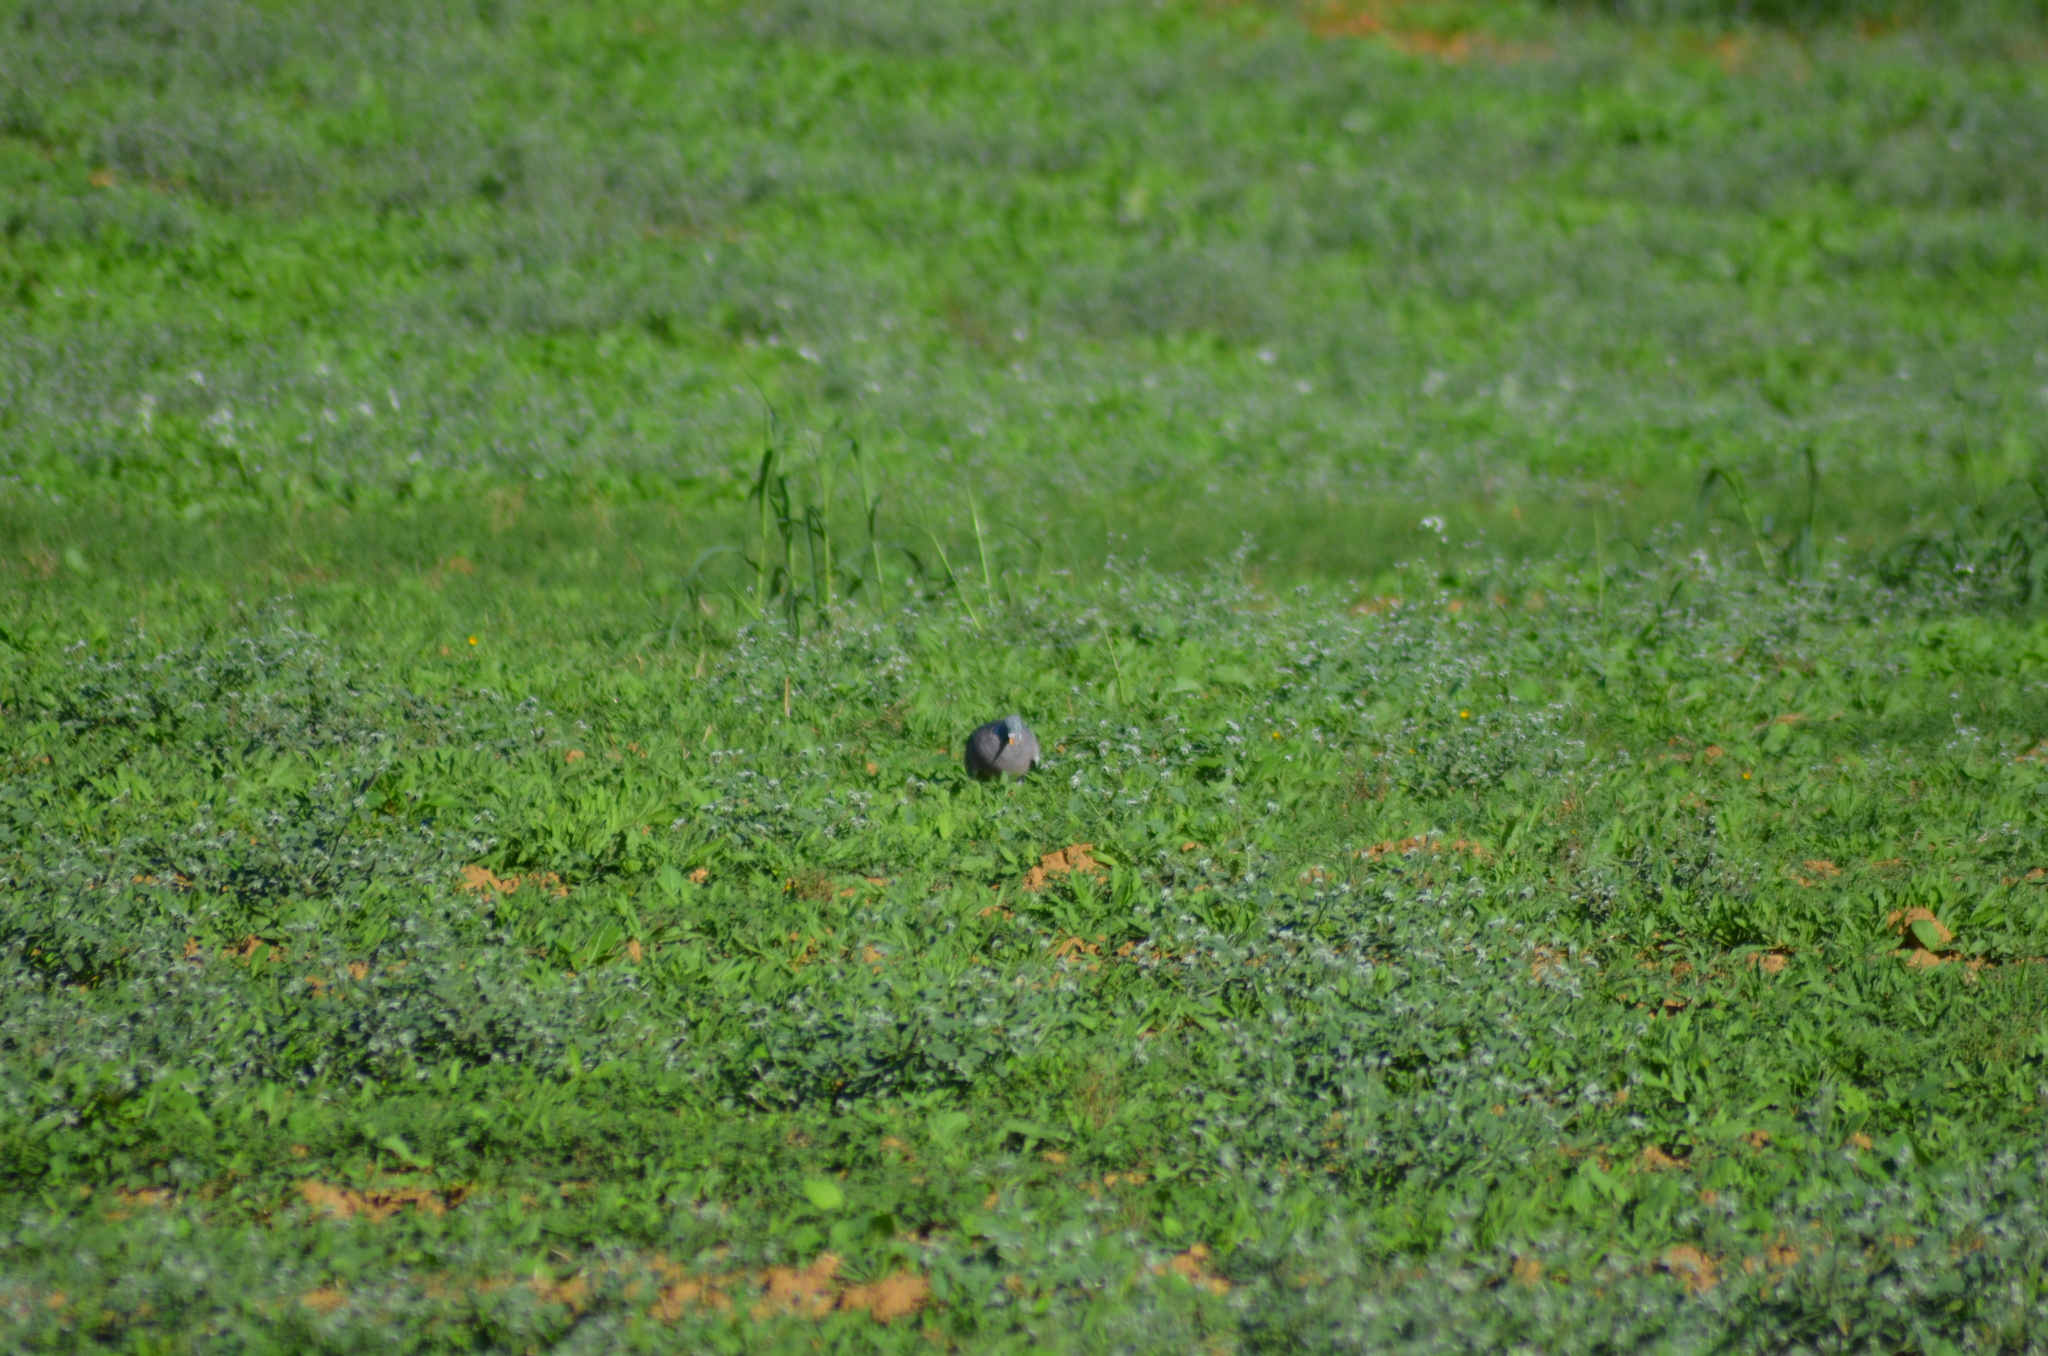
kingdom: Animalia
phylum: Chordata
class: Aves
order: Columbiformes
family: Columbidae
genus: Columba
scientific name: Columba palumbus
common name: Common wood pigeon
